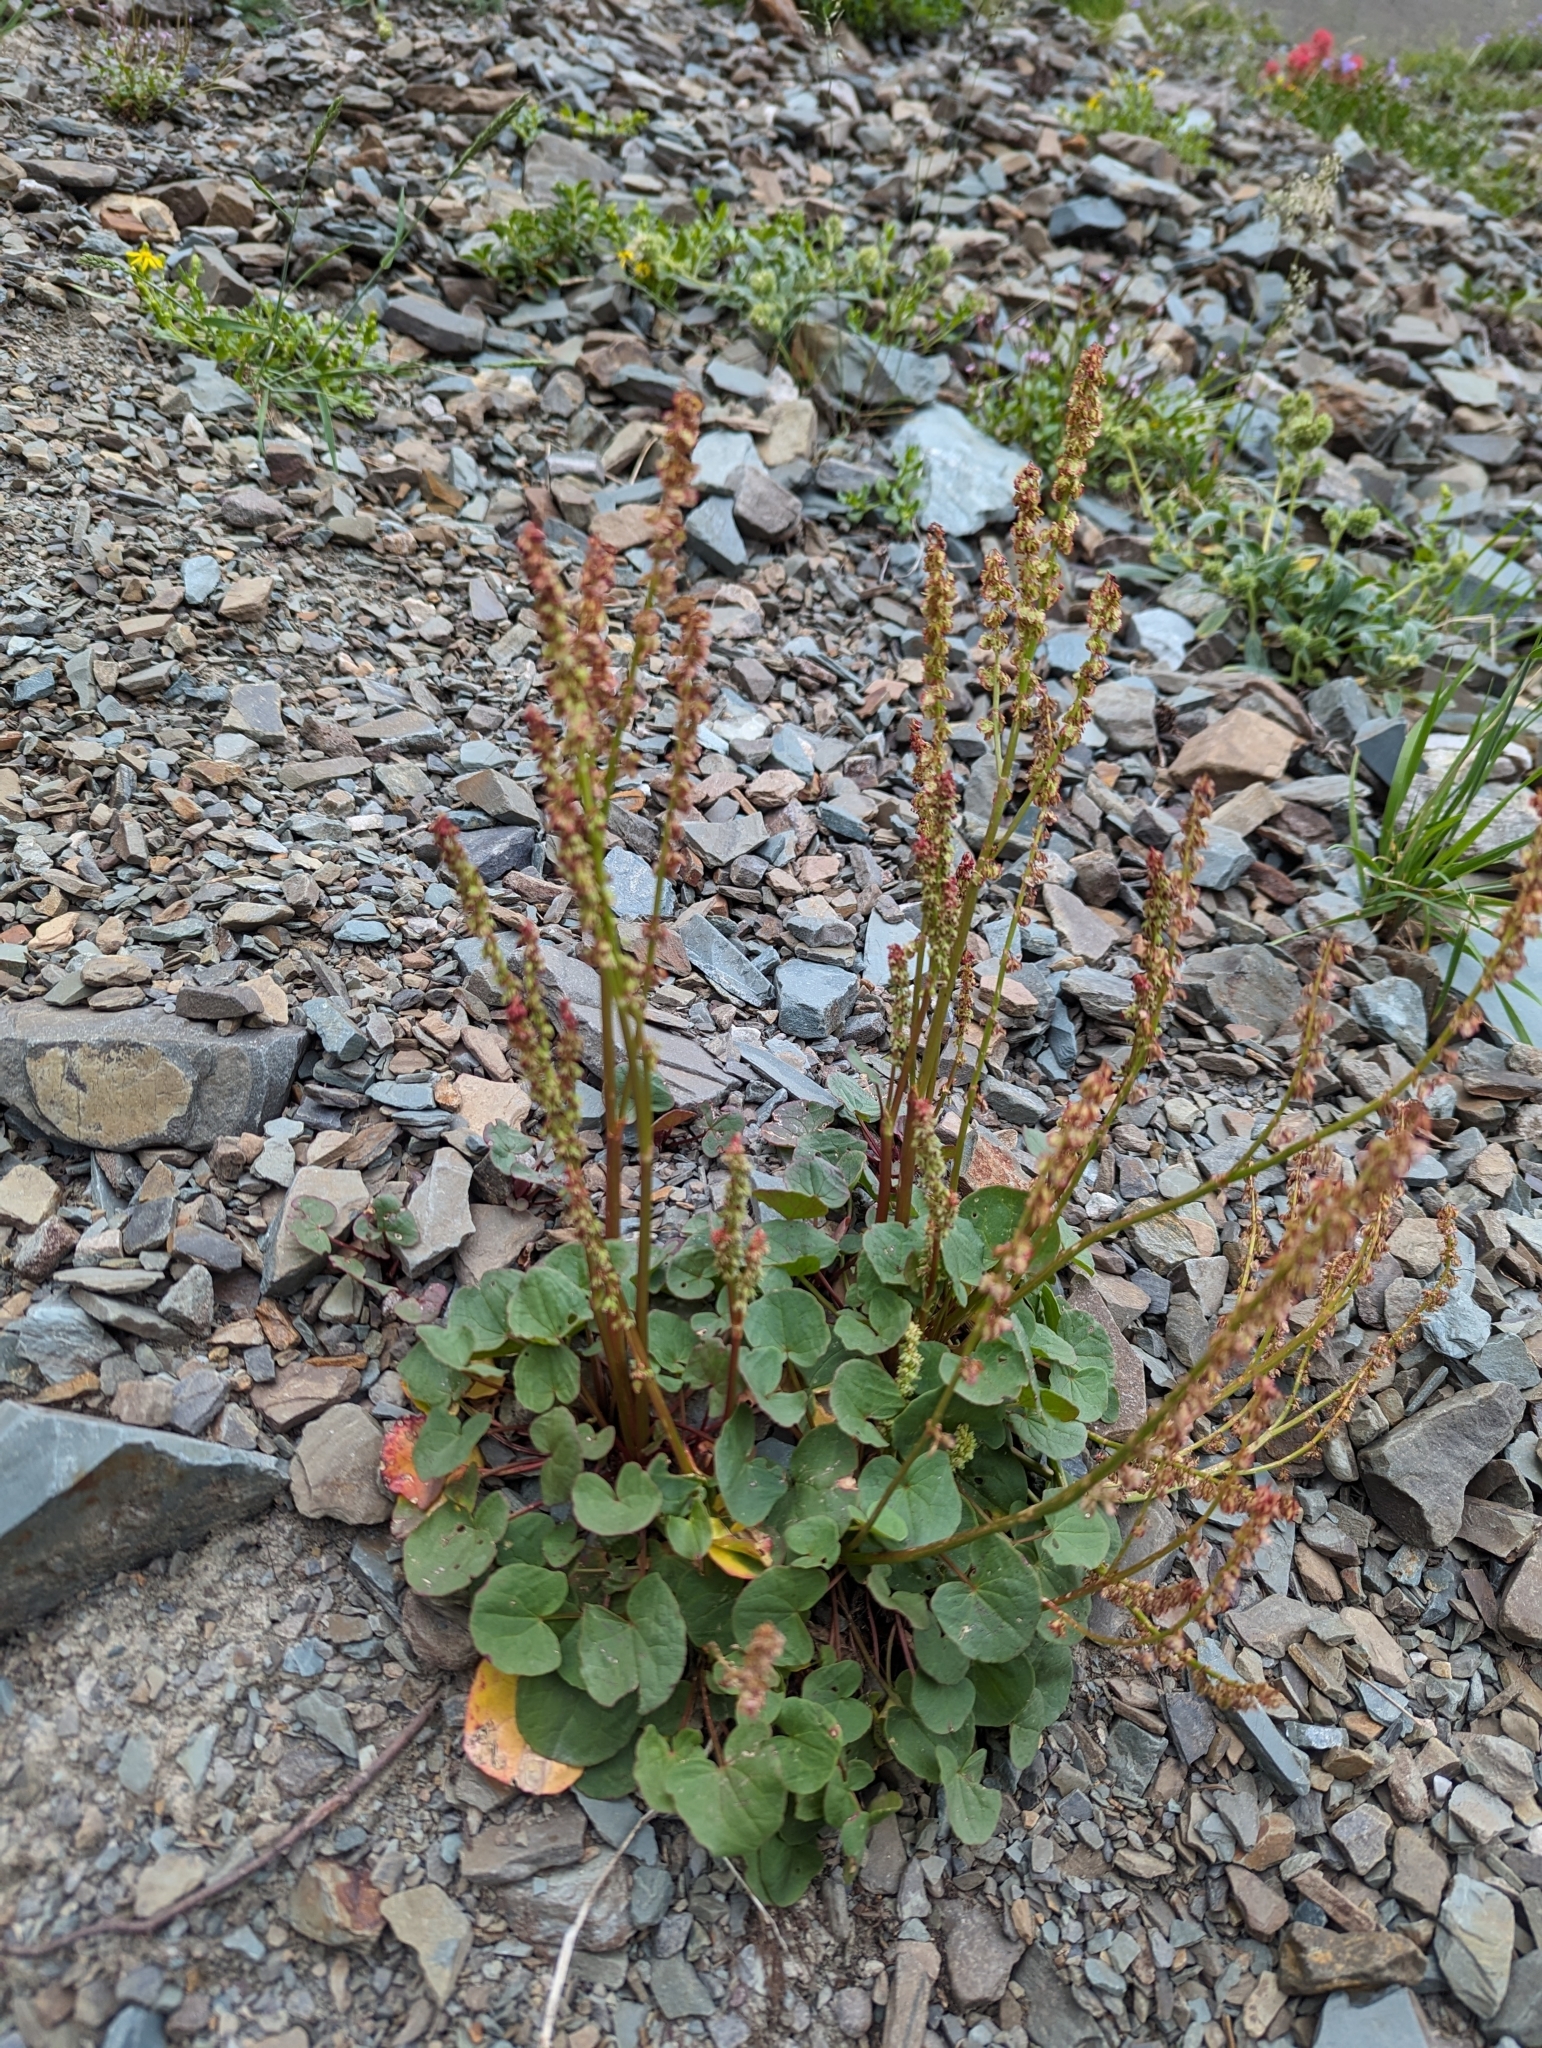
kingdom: Plantae
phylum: Tracheophyta
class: Magnoliopsida
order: Caryophyllales
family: Polygonaceae
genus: Oxyria
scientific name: Oxyria digyna
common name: Alpine mountain-sorrel
